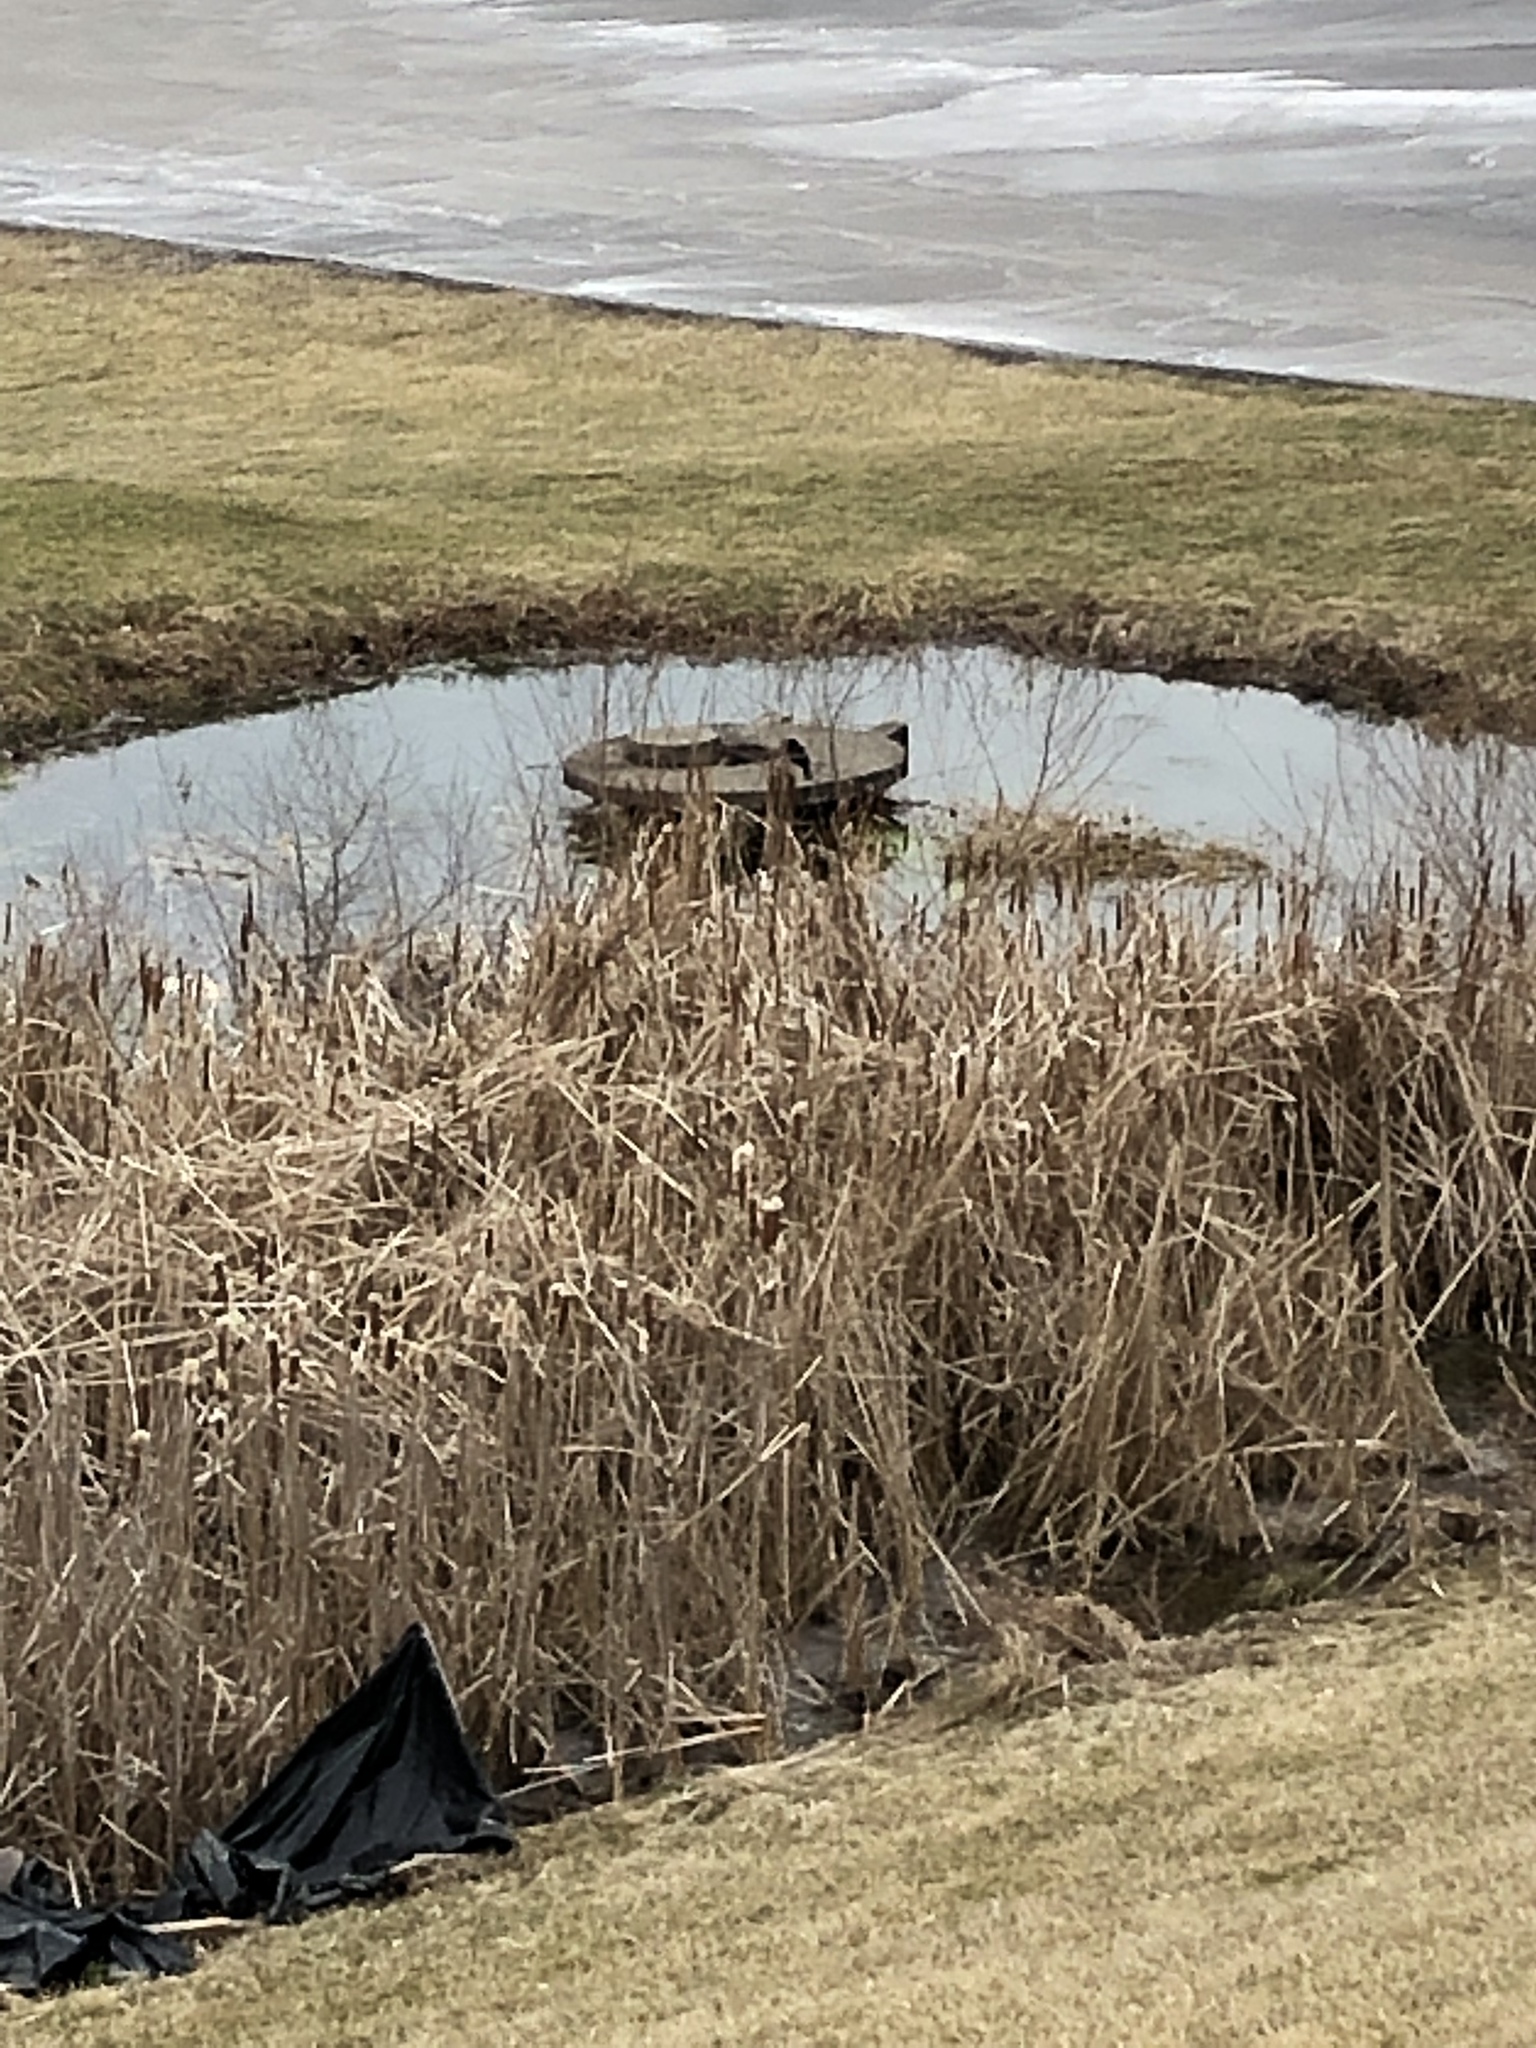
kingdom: Animalia
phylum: Chordata
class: Aves
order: Passeriformes
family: Icteridae
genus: Agelaius
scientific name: Agelaius phoeniceus
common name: Red-winged blackbird
